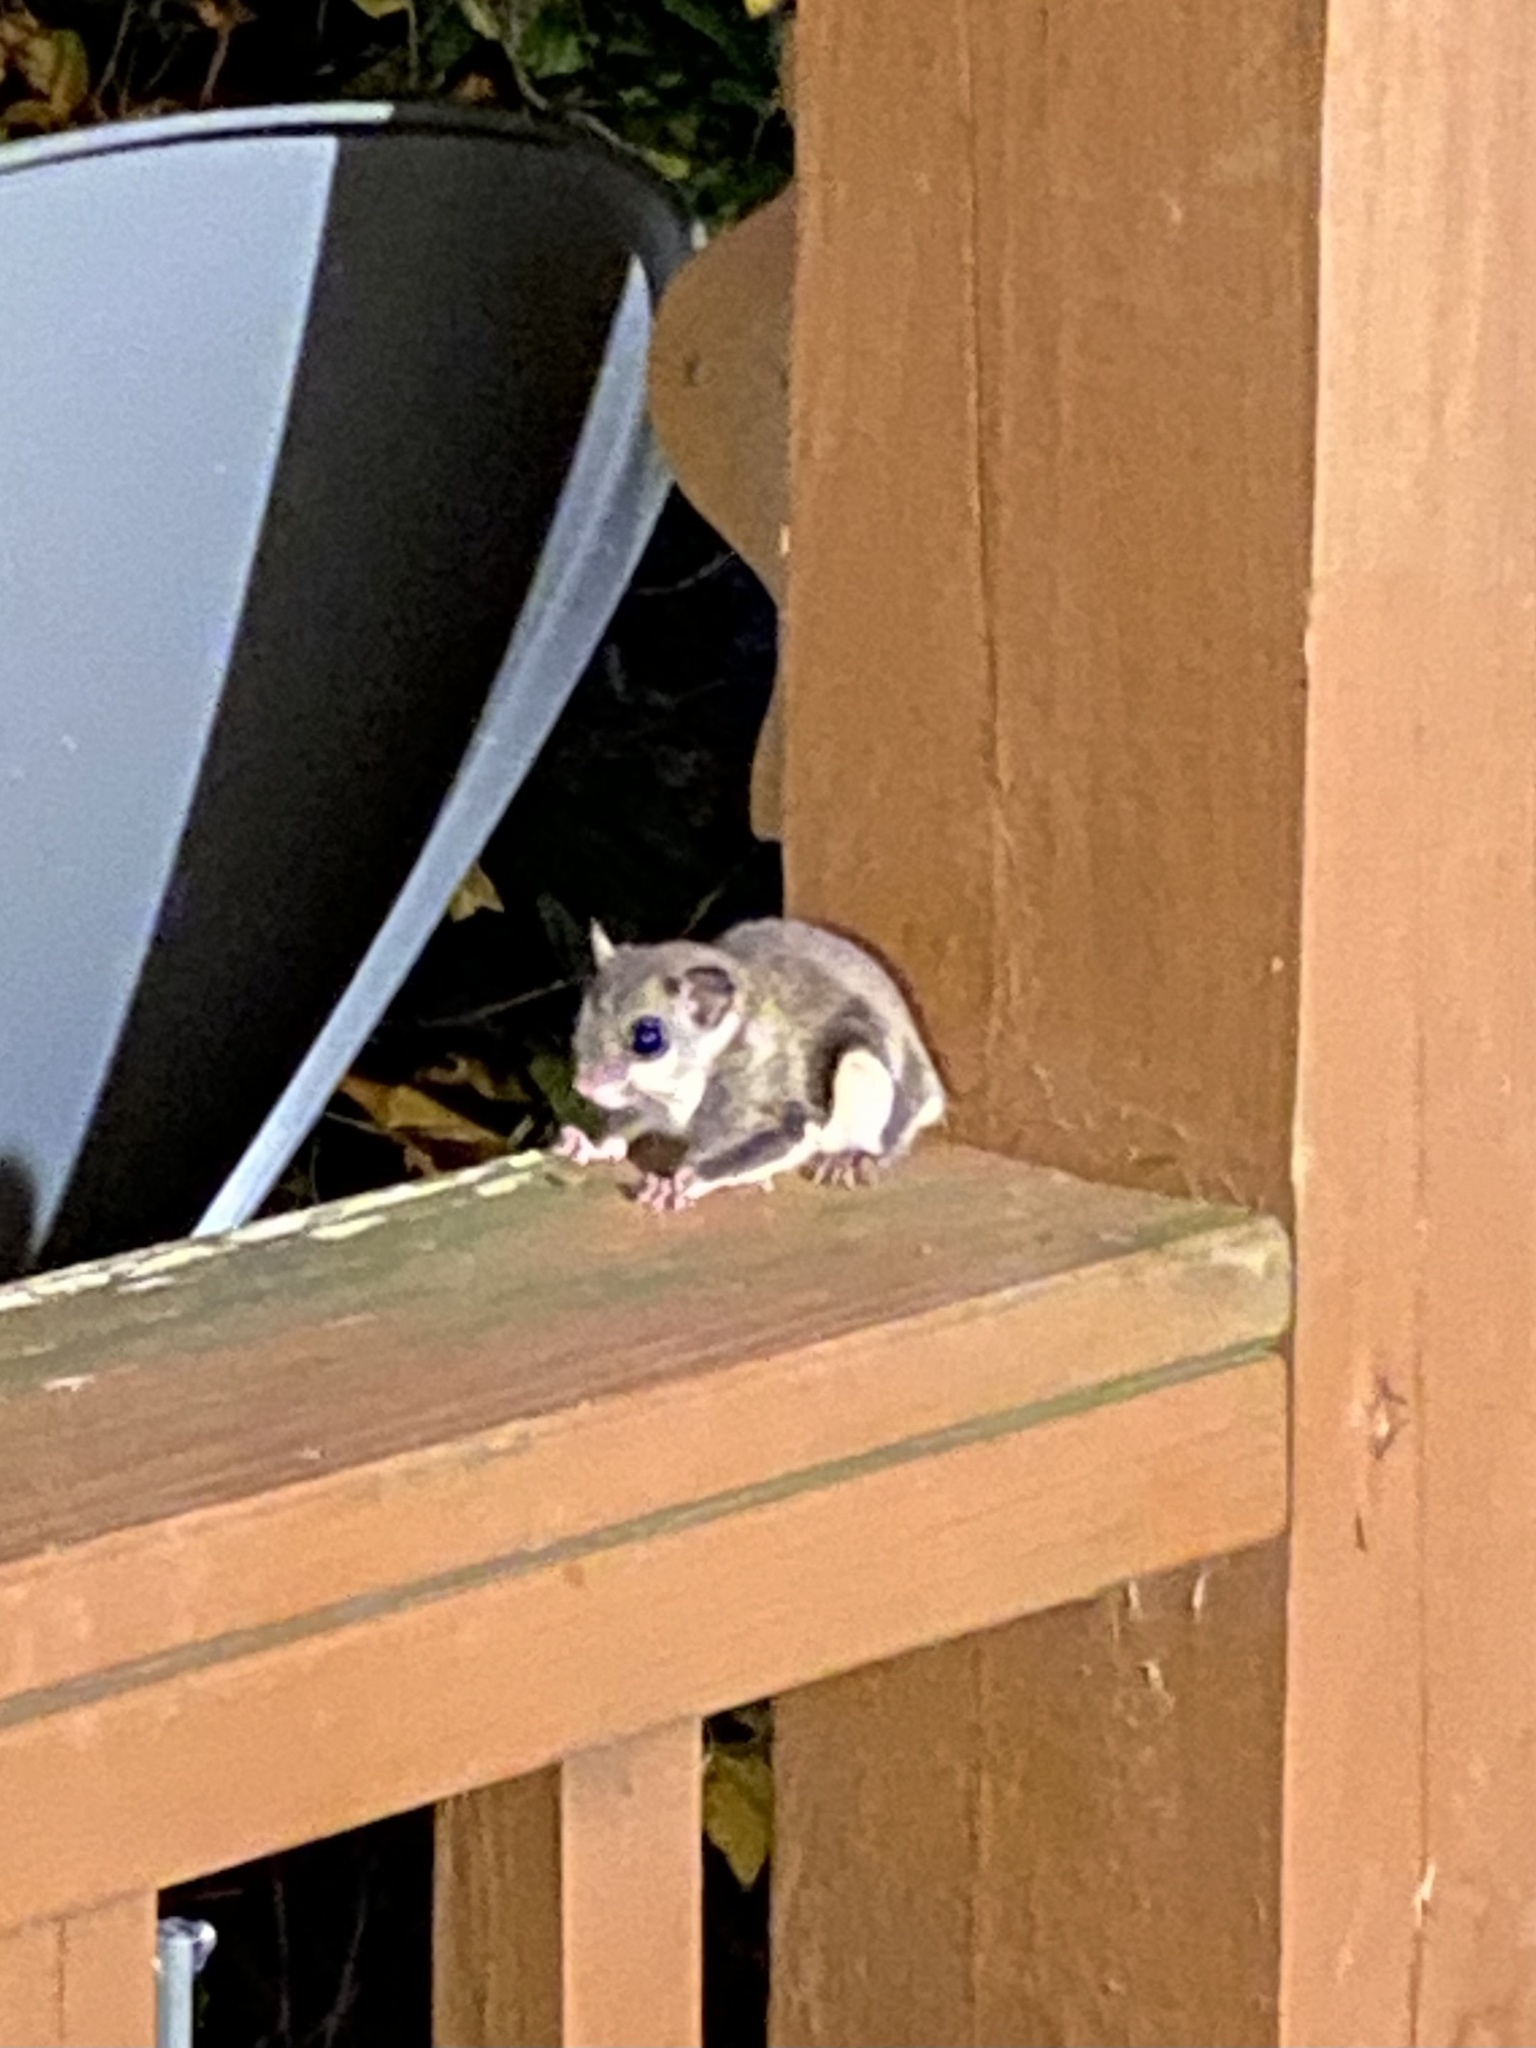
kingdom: Animalia
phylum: Chordata
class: Mammalia
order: Rodentia
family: Sciuridae
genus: Glaucomys
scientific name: Glaucomys volans
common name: Southern flying squirrel
